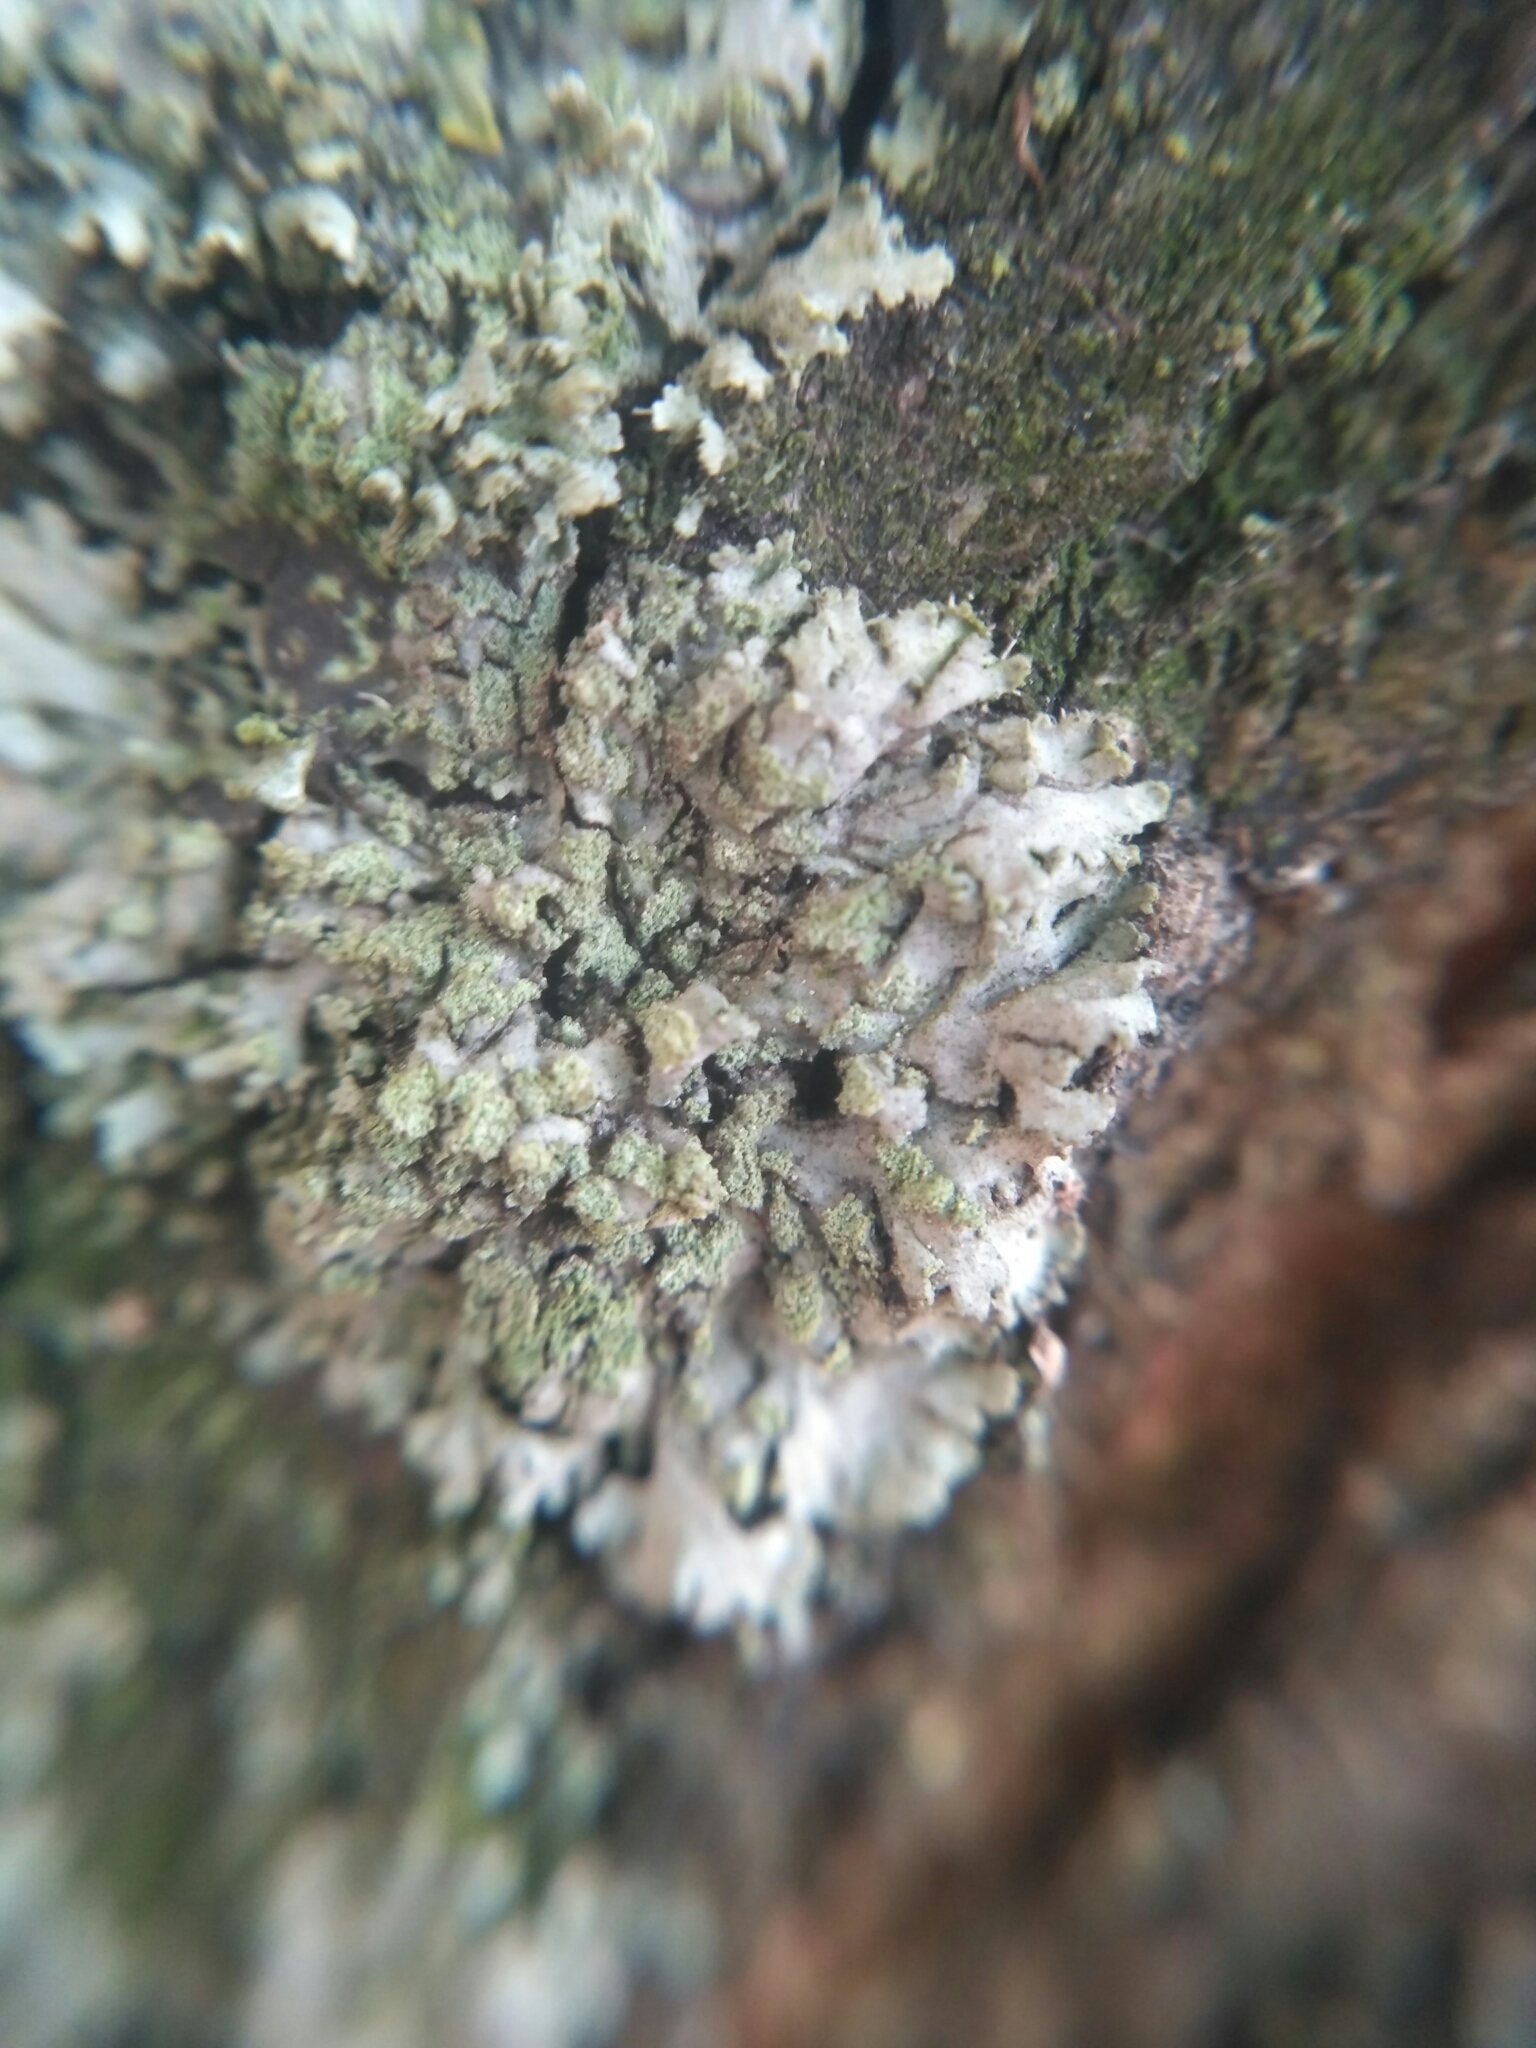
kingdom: Fungi
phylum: Ascomycota
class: Lecanoromycetes
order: Caliciales
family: Physciaceae
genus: Phaeophyscia
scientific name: Phaeophyscia orbicularis
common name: Mealy shadow lichen
